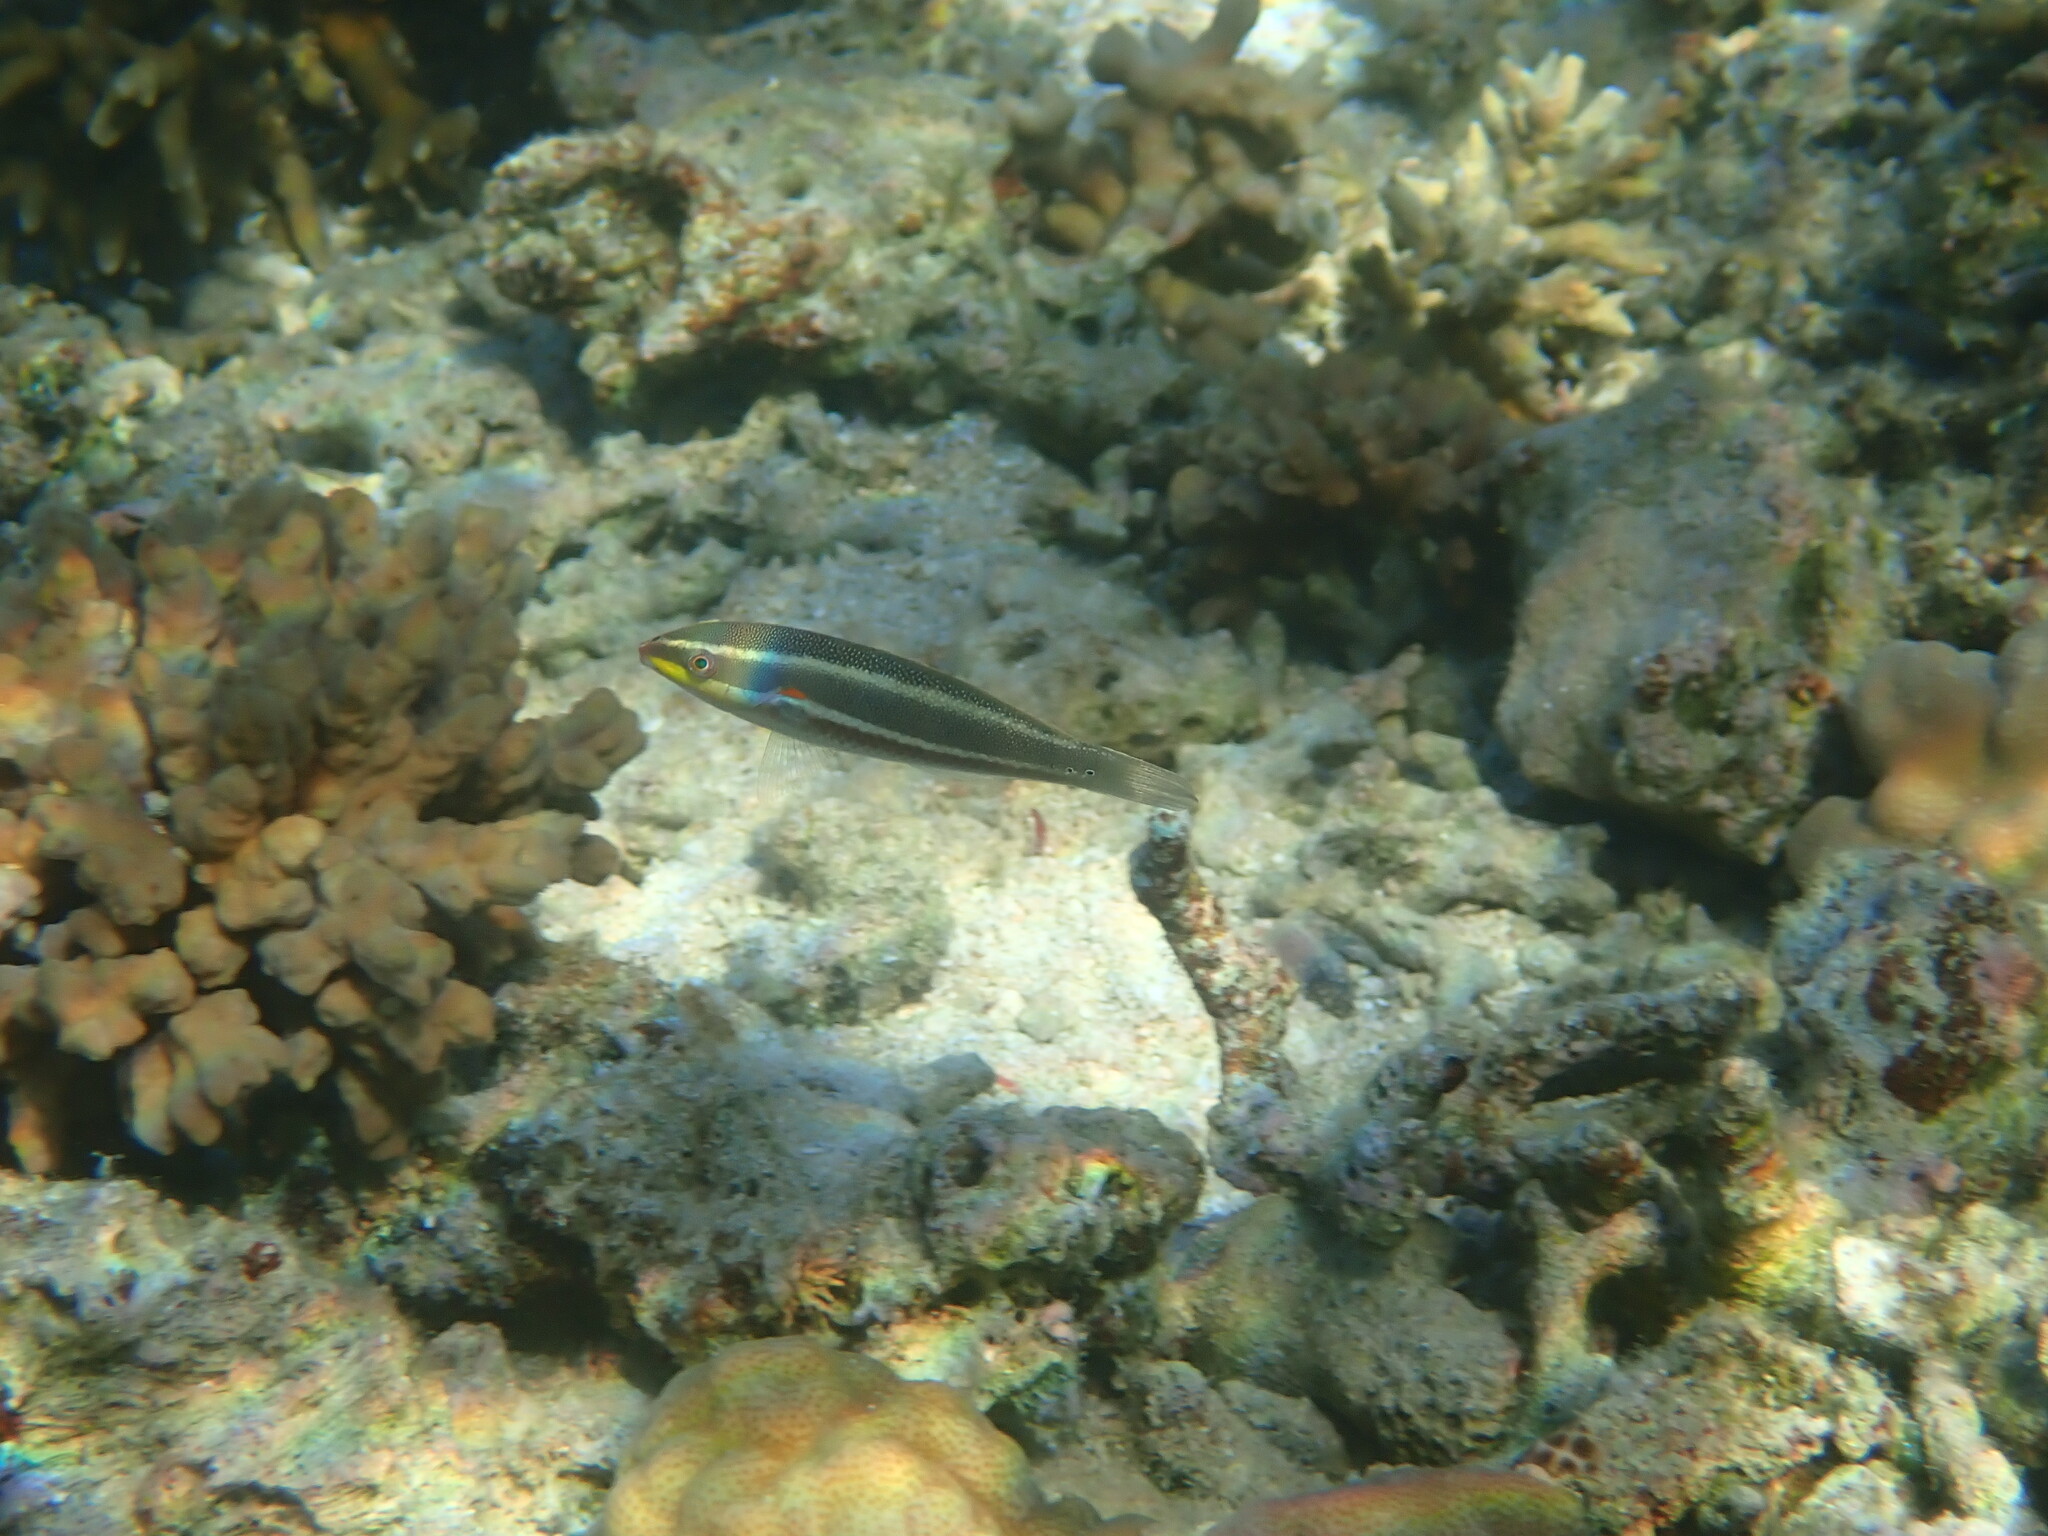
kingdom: Animalia
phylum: Chordata
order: Perciformes
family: Labridae
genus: Stethojulis
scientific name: Stethojulis bandanensis
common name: Red shoulder wrasse
